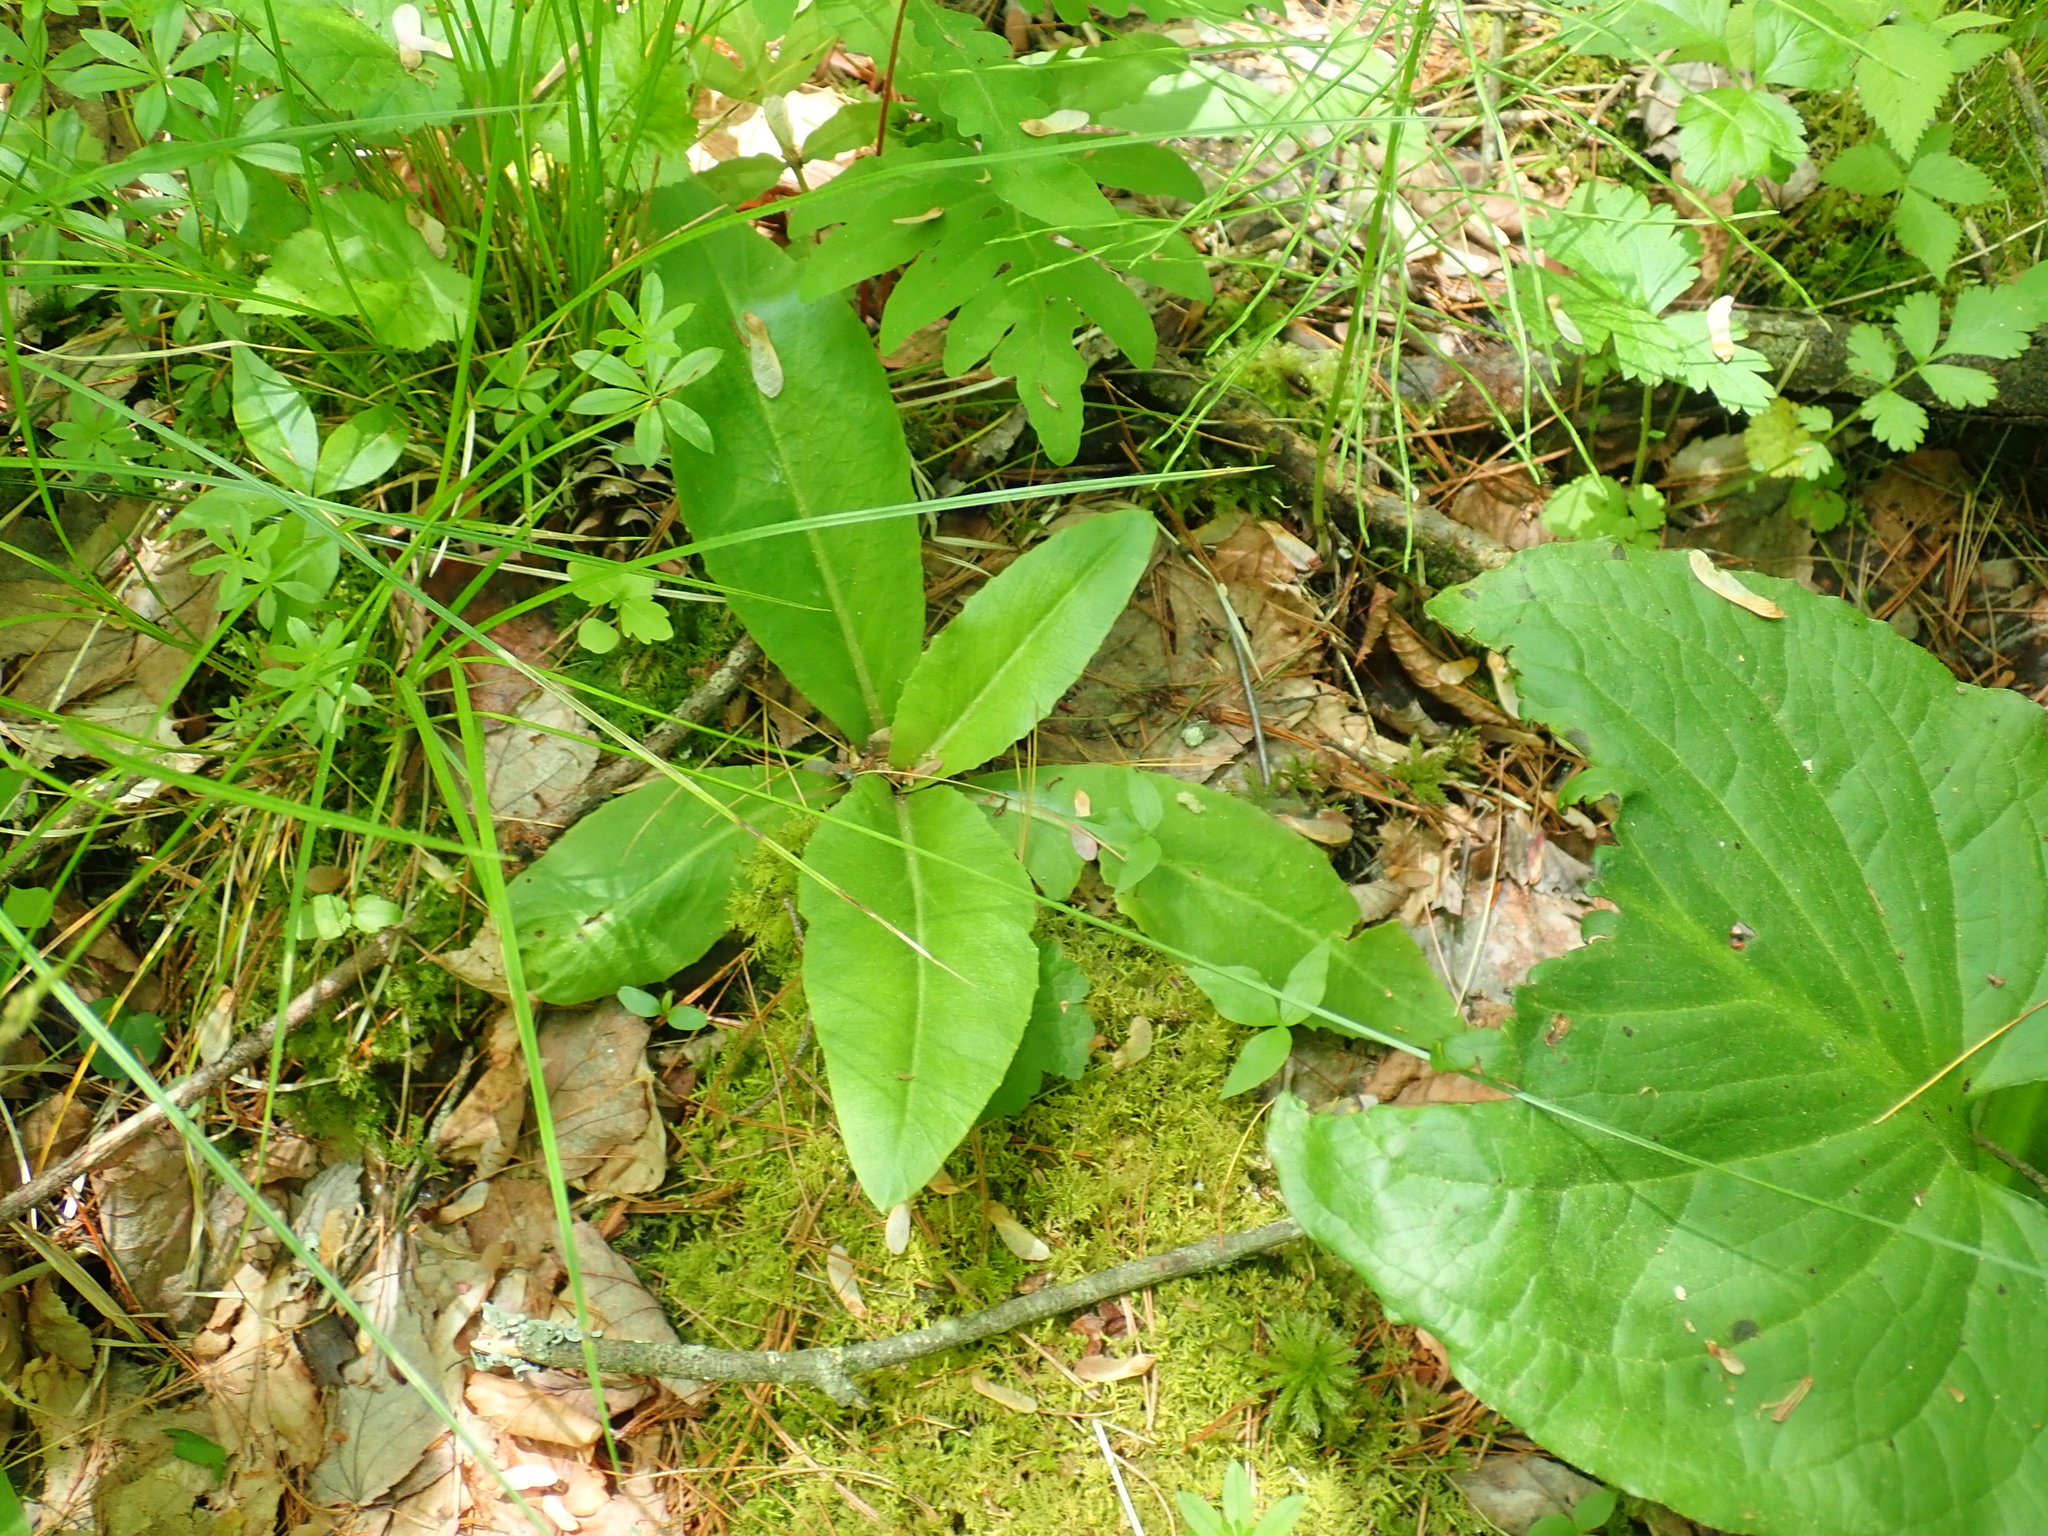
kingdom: Plantae
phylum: Tracheophyta
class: Magnoliopsida
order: Saxifragales
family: Saxifragaceae
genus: Micranthes
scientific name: Micranthes pensylvanica
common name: Marsh saxifrage
